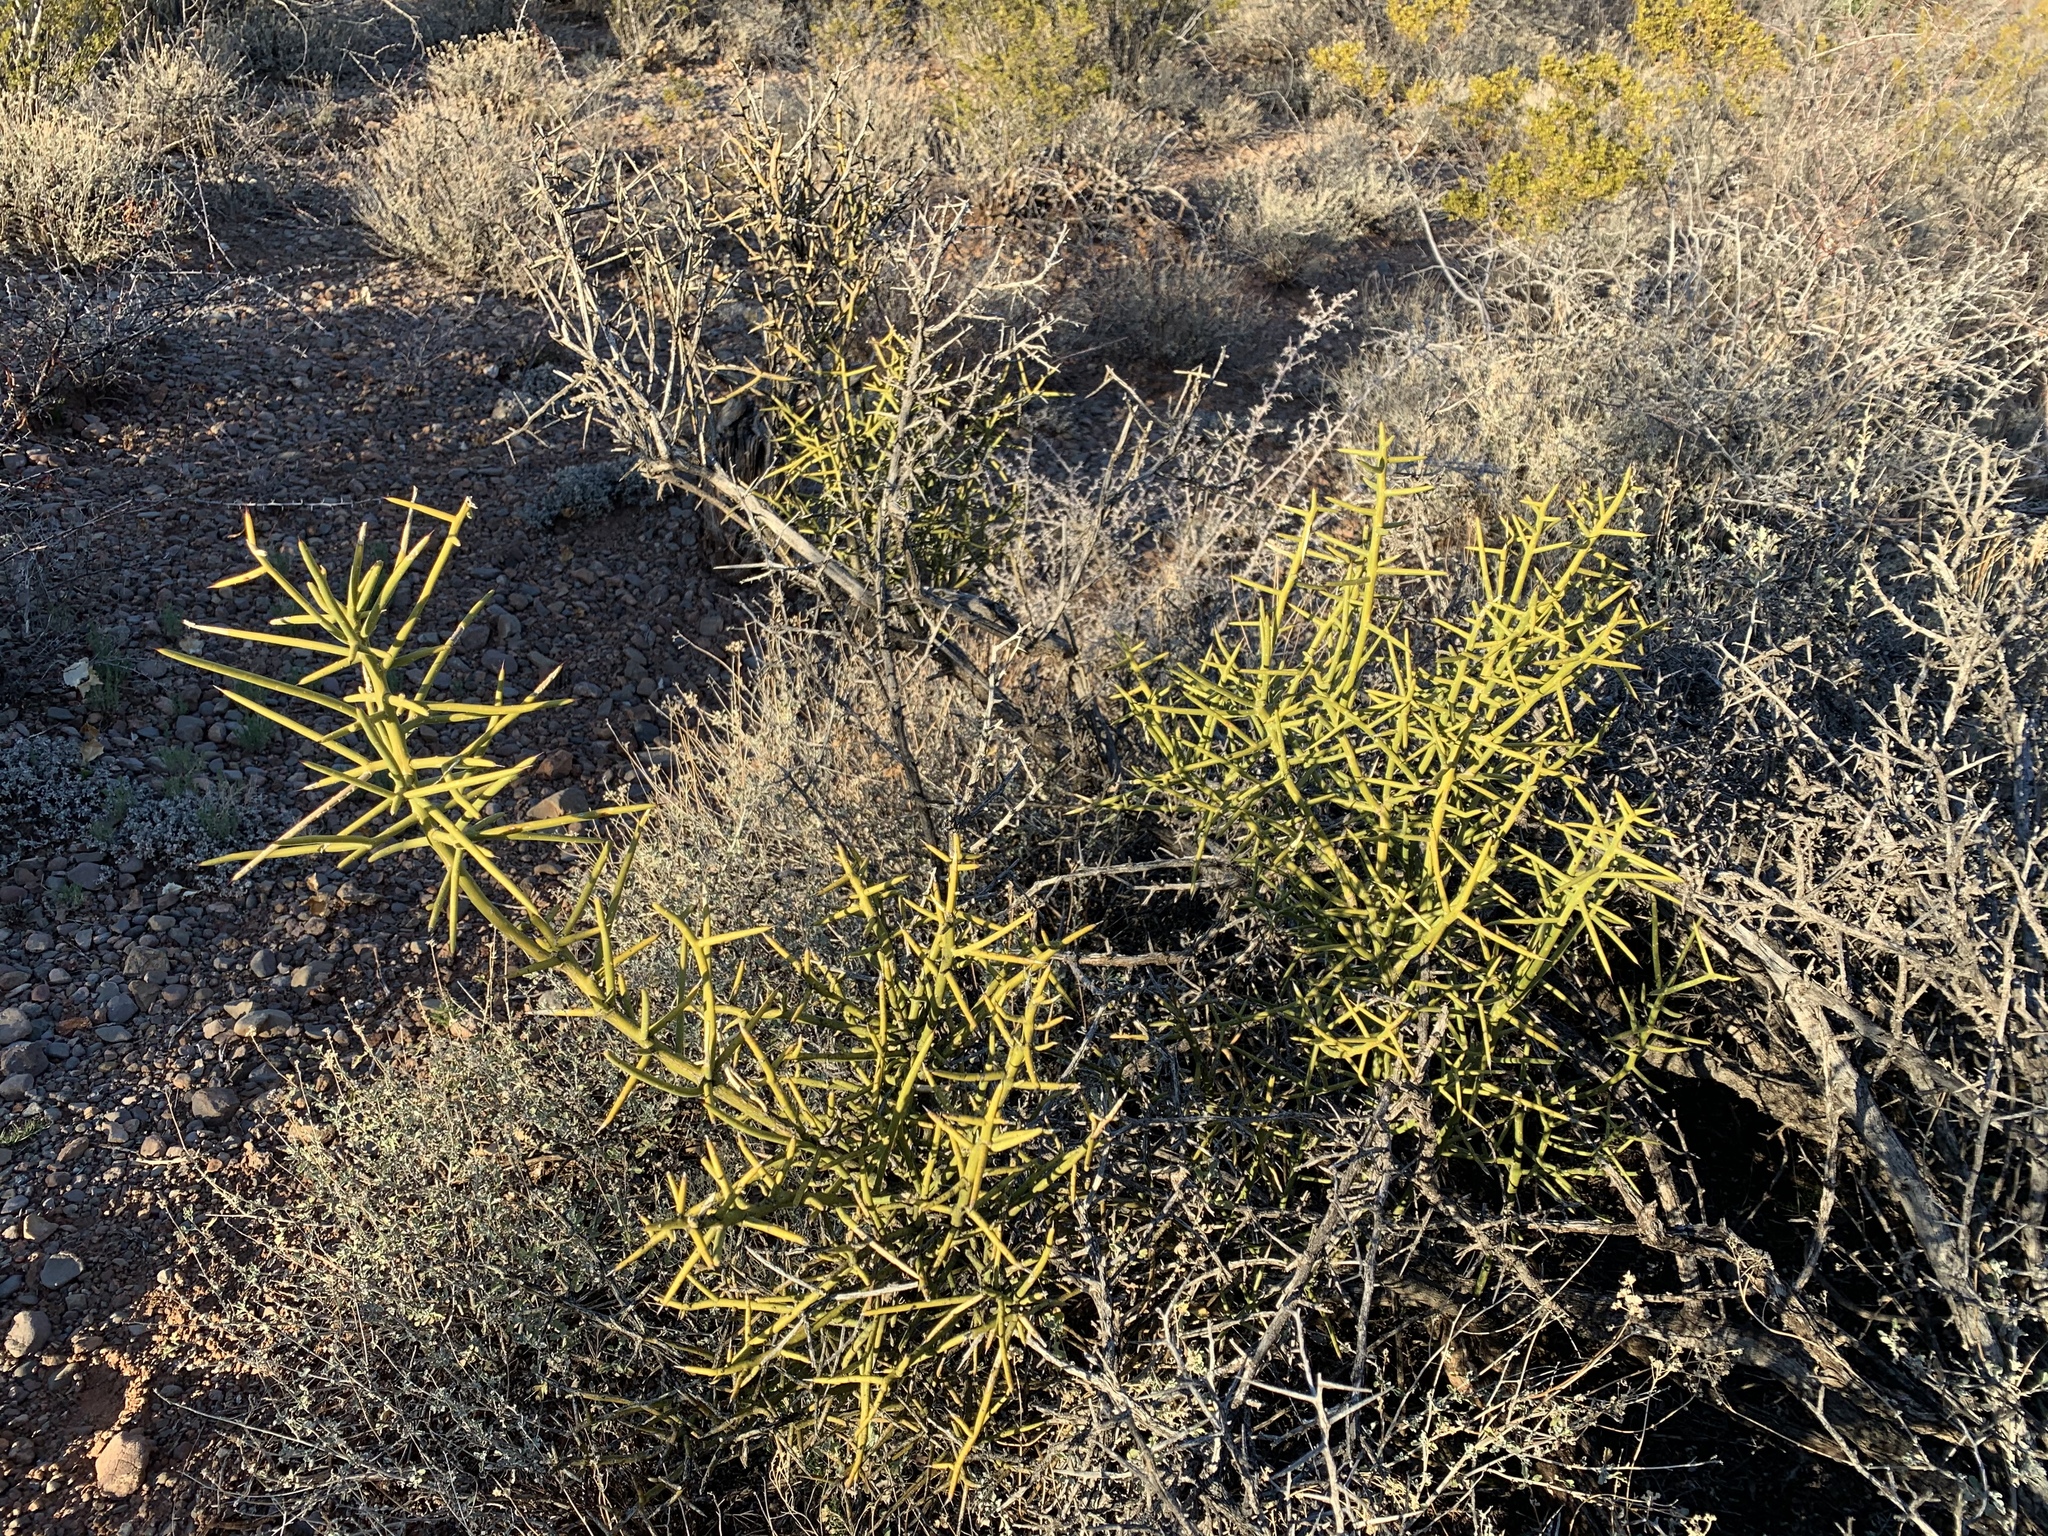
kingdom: Plantae
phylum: Tracheophyta
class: Magnoliopsida
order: Brassicales
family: Koeberliniaceae
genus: Koeberlinia
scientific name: Koeberlinia spinosa
